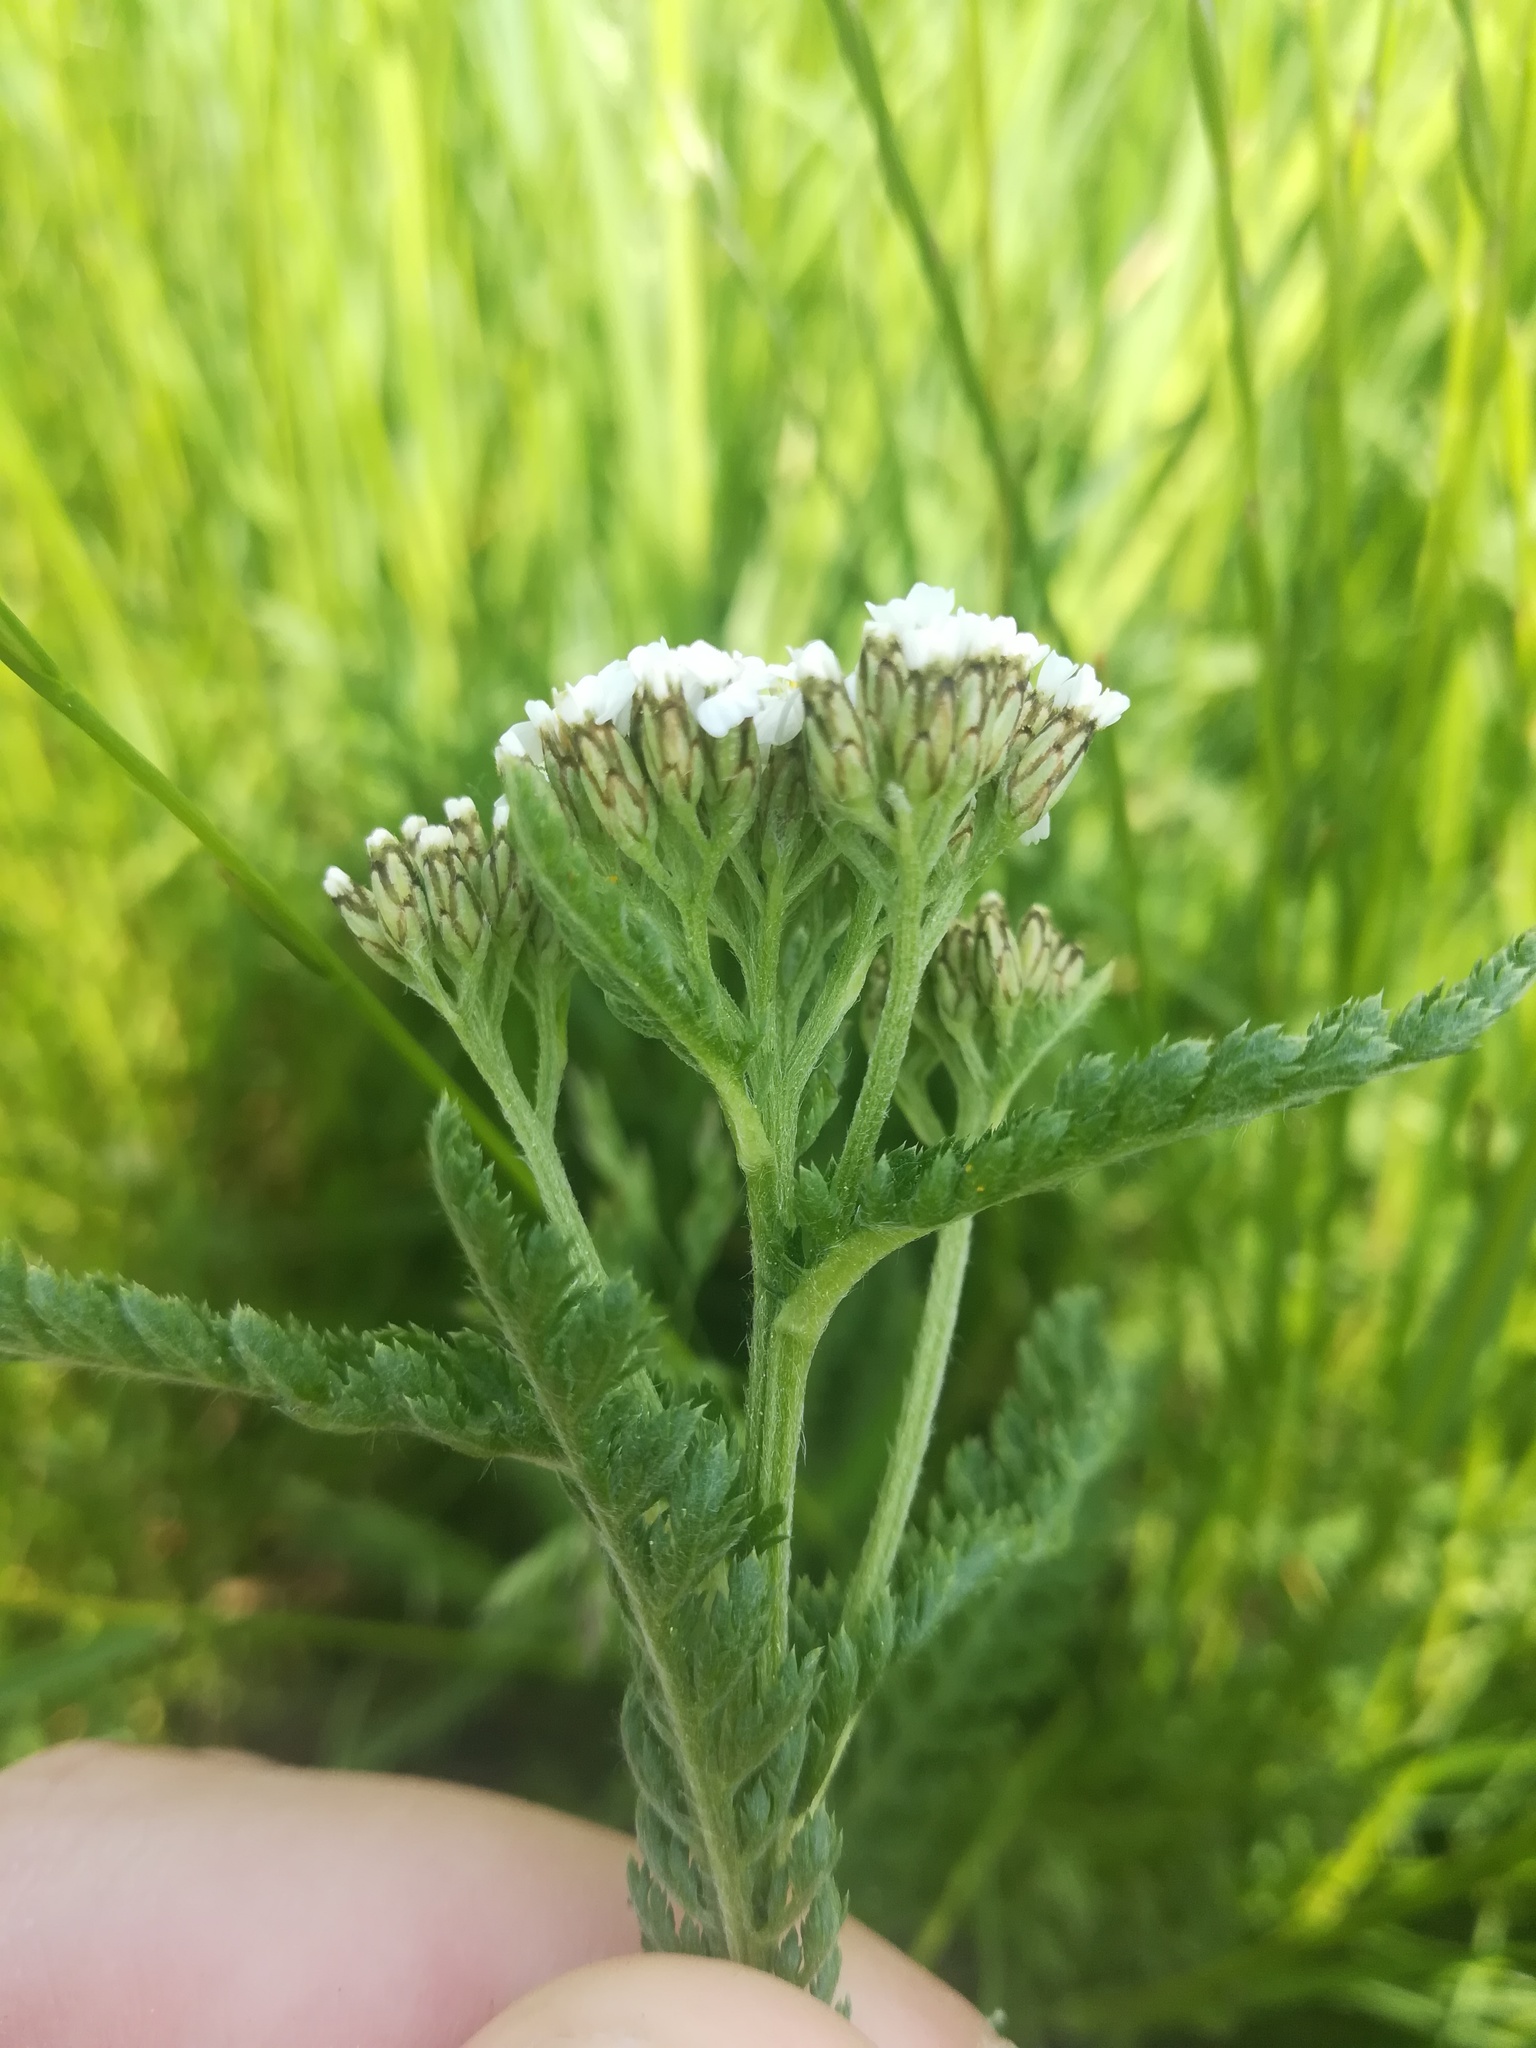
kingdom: Plantae
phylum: Tracheophyta
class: Magnoliopsida
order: Asterales
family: Asteraceae
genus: Achillea
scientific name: Achillea millefolium
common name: Yarrow
